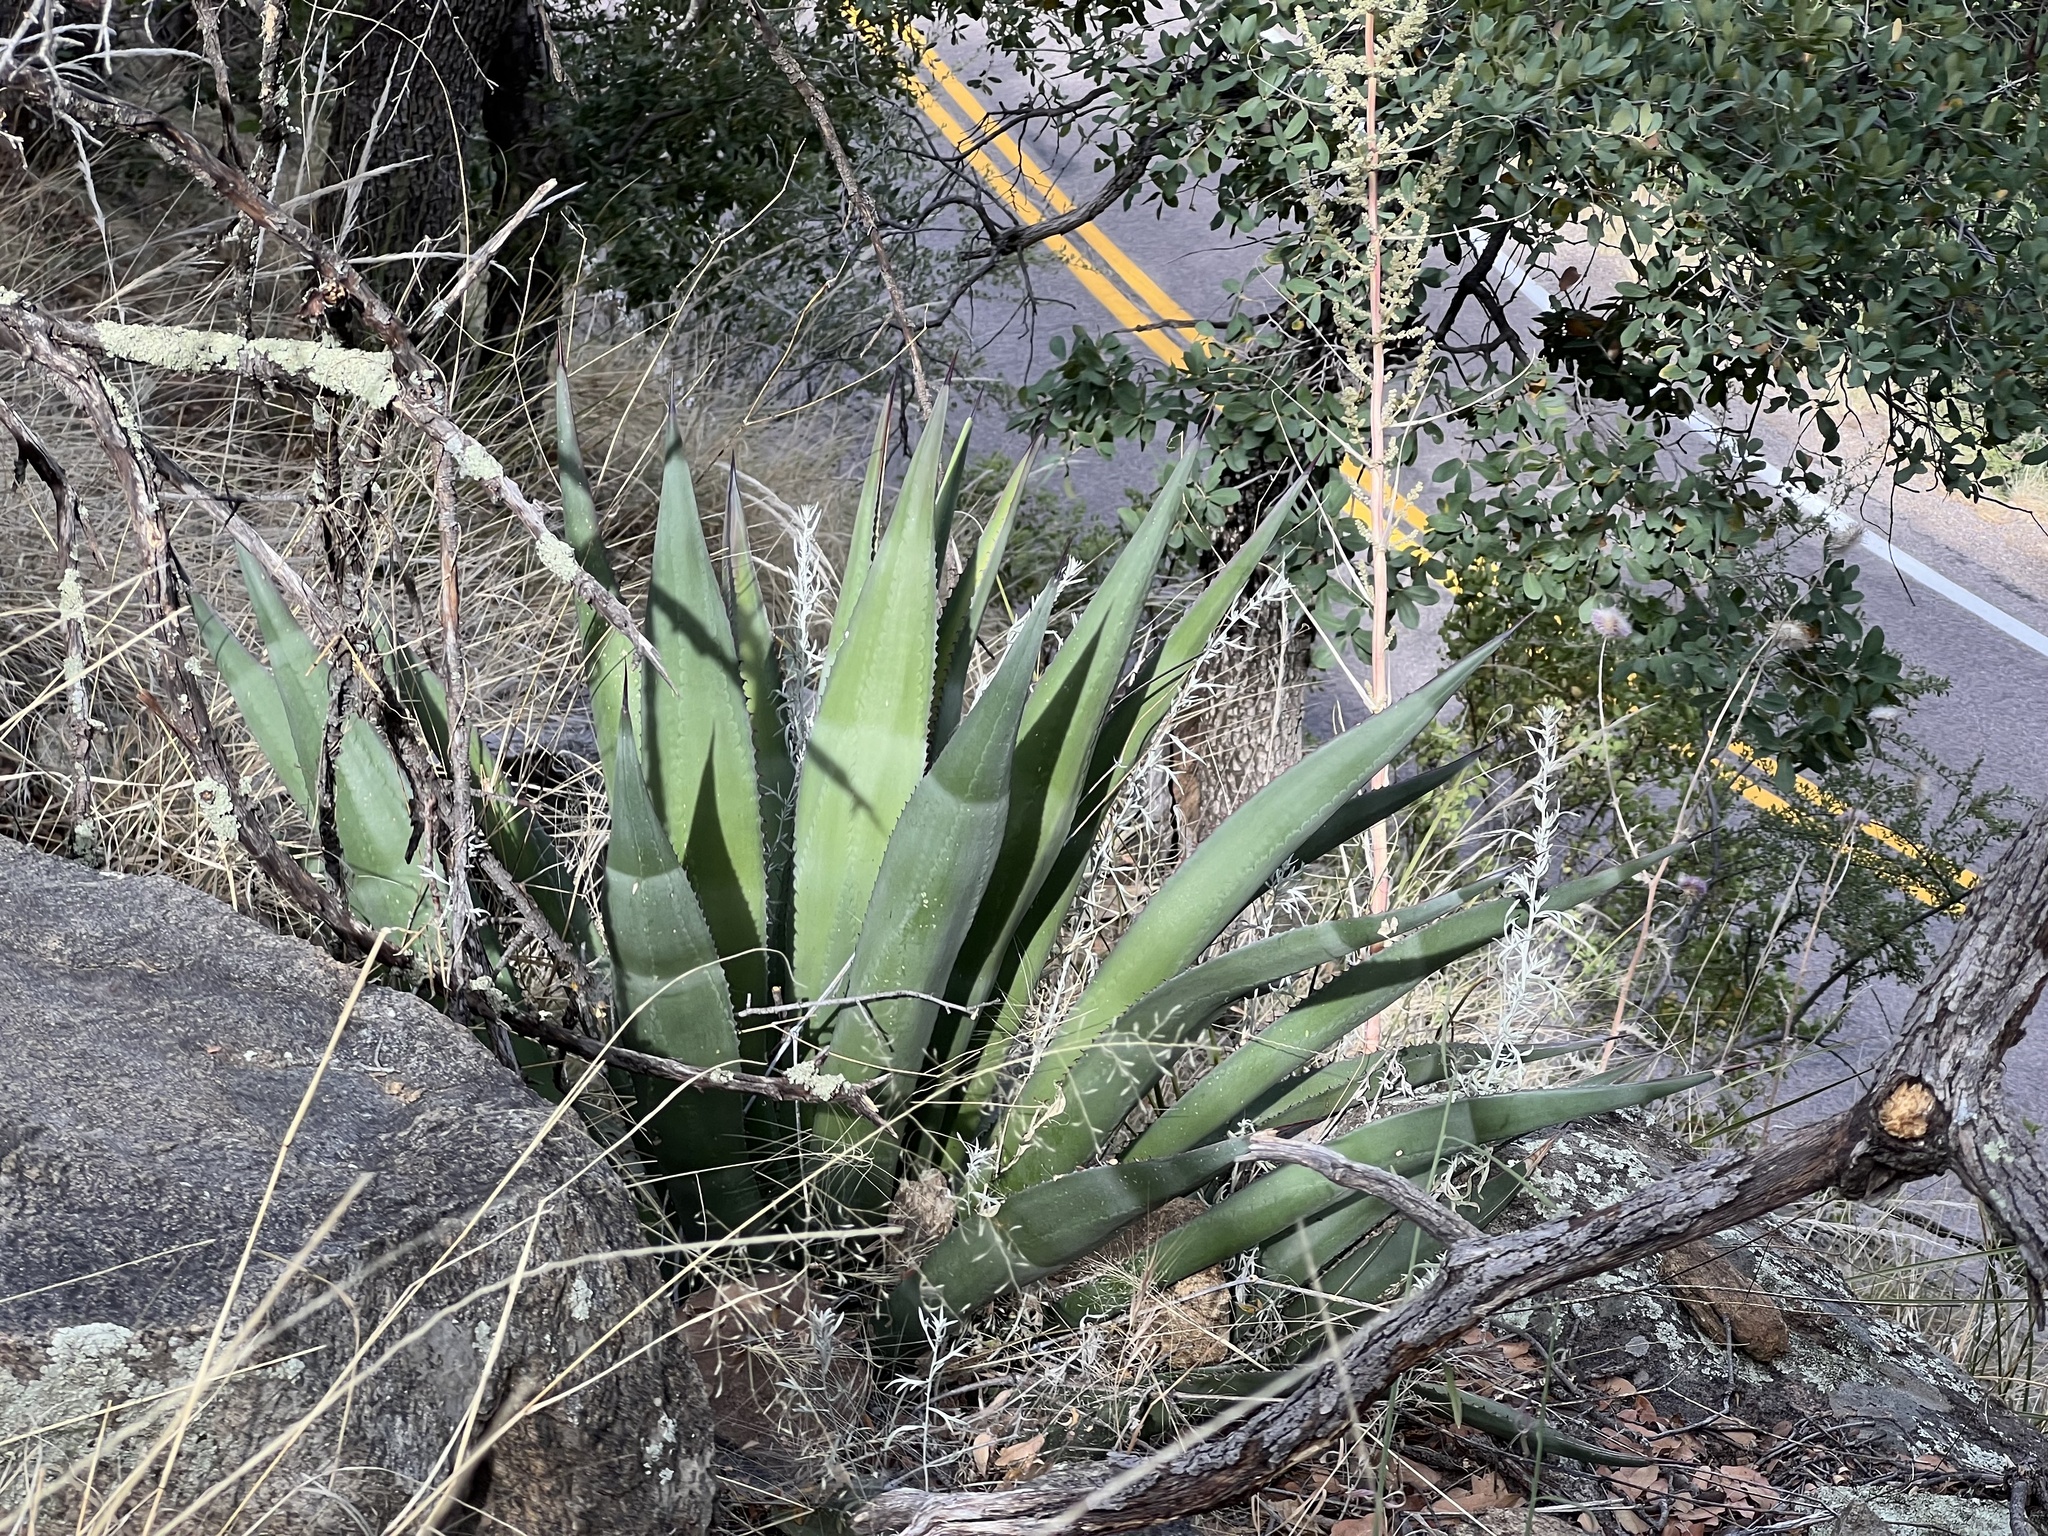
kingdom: Plantae
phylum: Tracheophyta
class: Liliopsida
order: Asparagales
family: Asparagaceae
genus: Agave
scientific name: Agave palmeri
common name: Palmer agave
